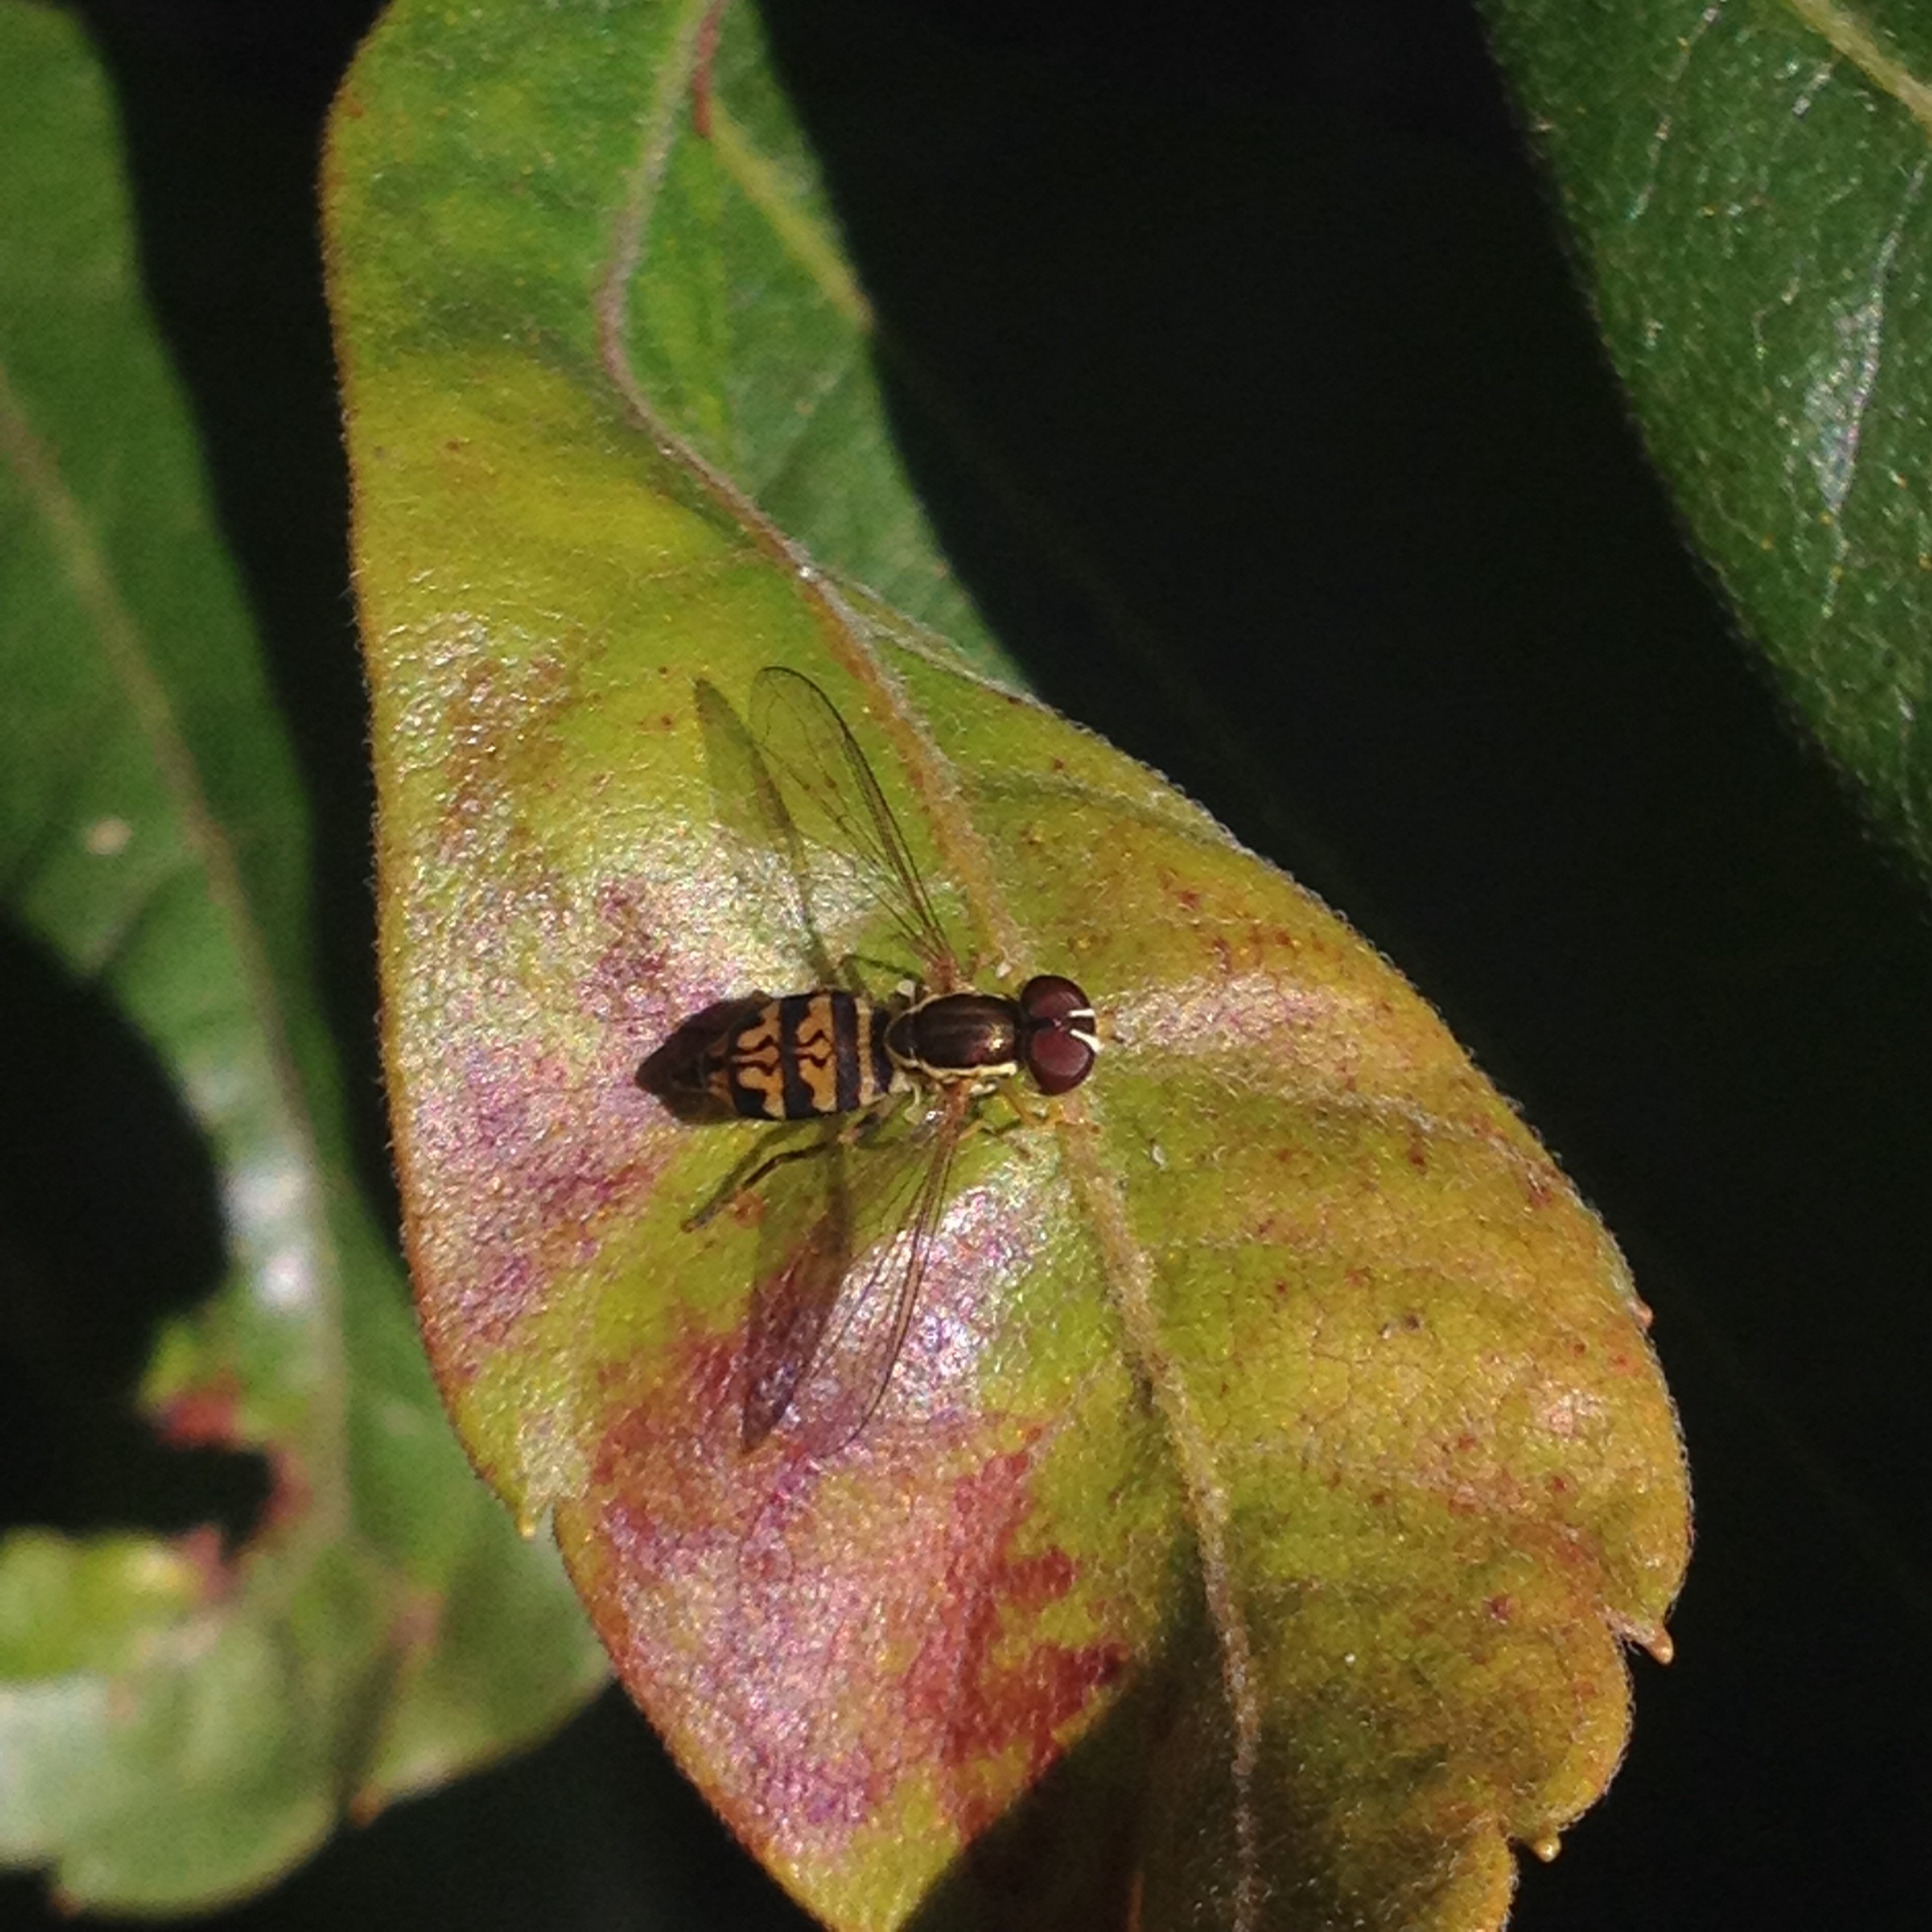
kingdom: Animalia
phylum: Arthropoda
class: Insecta
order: Diptera
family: Syrphidae
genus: Toxomerus
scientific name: Toxomerus geminatus
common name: Eastern calligrapher
